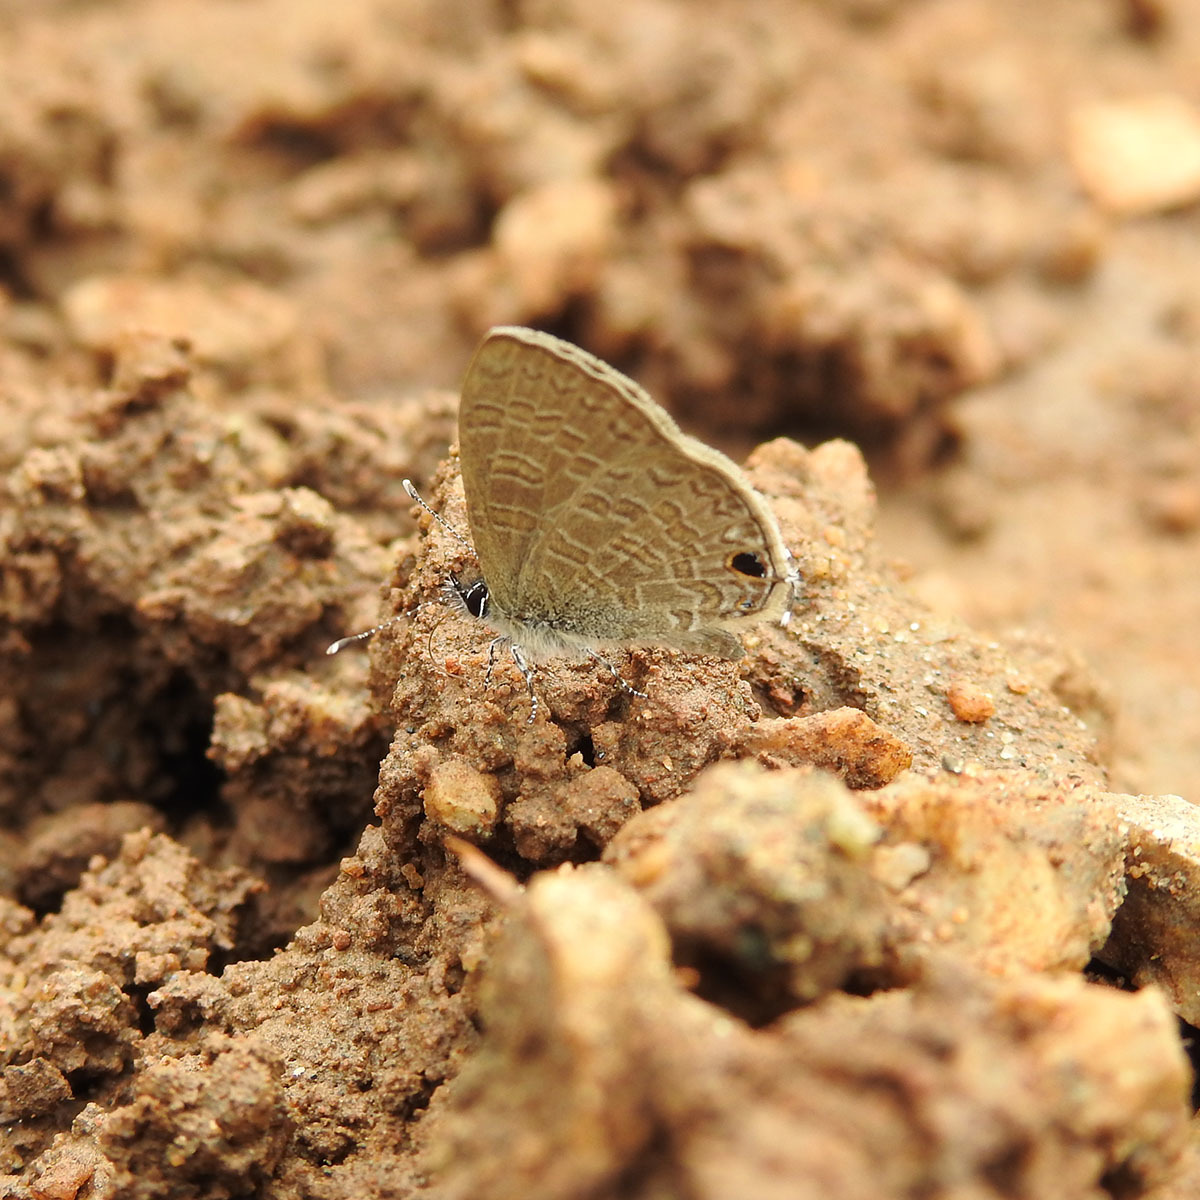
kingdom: Animalia
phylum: Arthropoda
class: Insecta
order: Lepidoptera
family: Lycaenidae
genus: Prosotas
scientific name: Prosotas dubiosa
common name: Tailless lineblue
